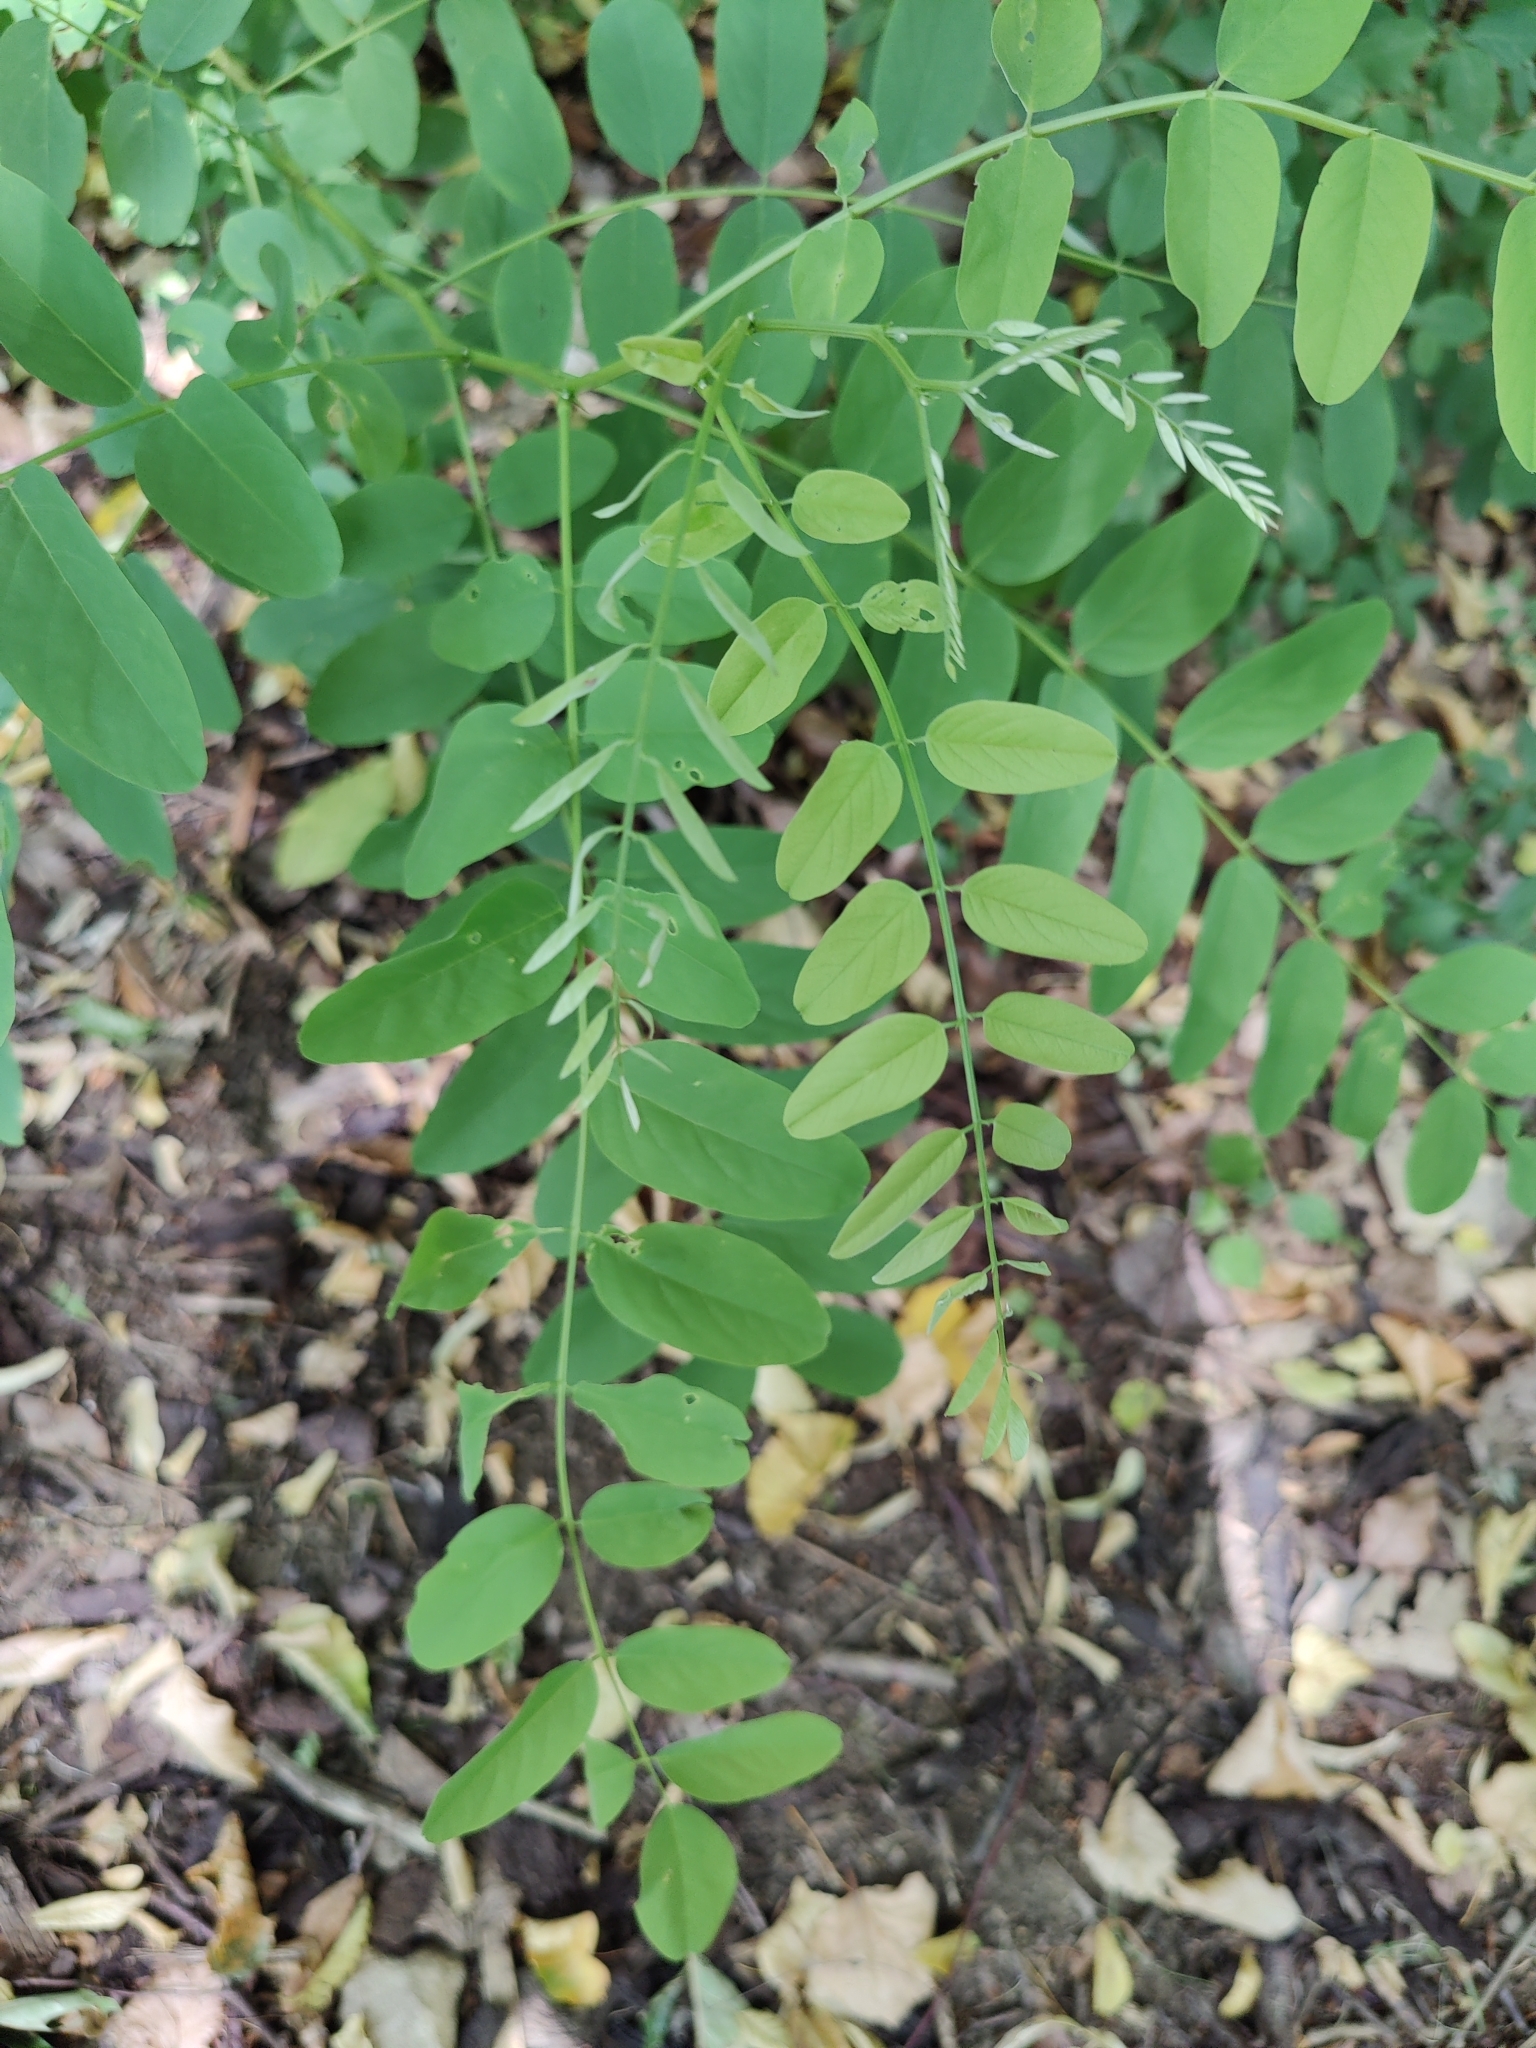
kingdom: Plantae
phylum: Tracheophyta
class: Magnoliopsida
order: Fabales
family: Fabaceae
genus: Robinia
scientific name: Robinia pseudoacacia
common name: Black locust
